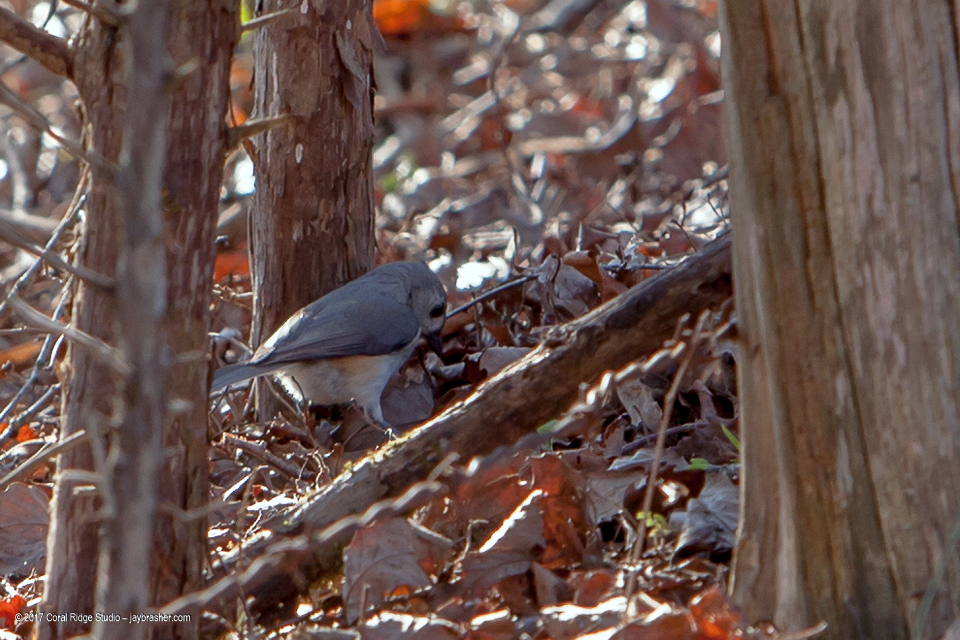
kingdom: Animalia
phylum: Chordata
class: Aves
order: Passeriformes
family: Paridae
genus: Baeolophus
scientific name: Baeolophus bicolor
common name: Tufted titmouse
